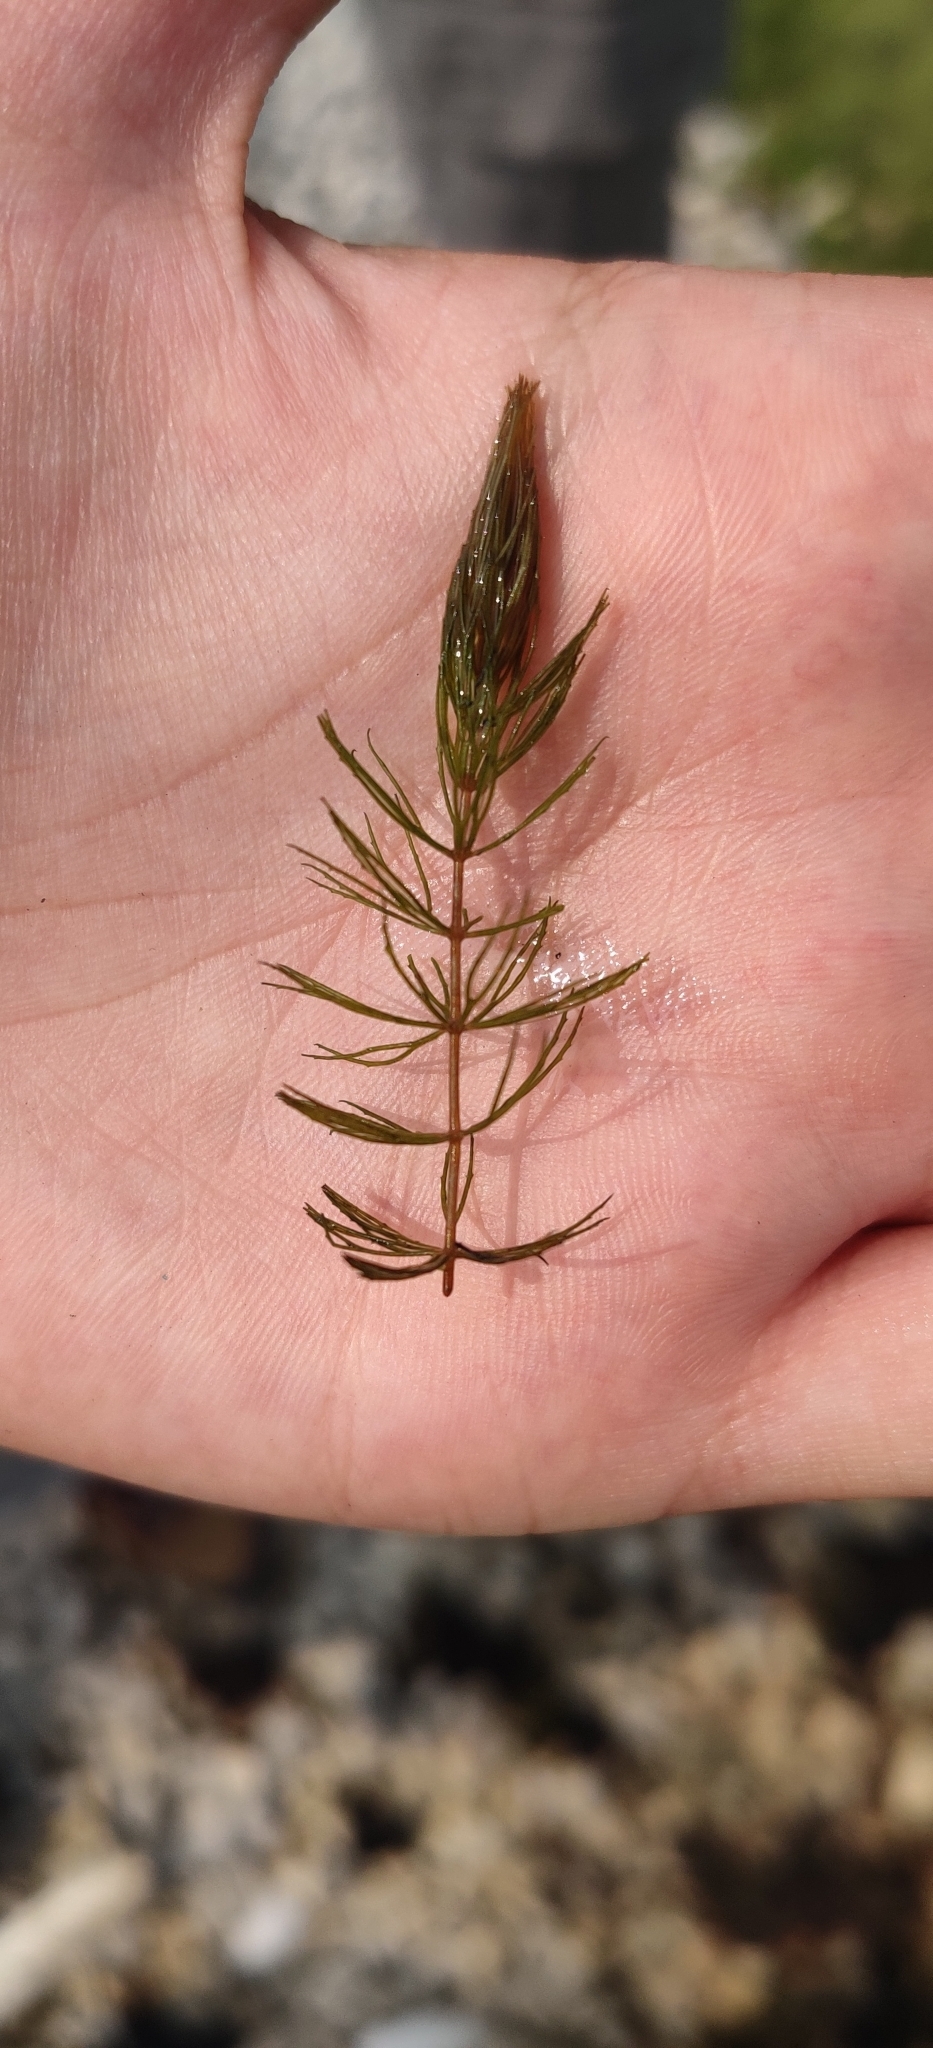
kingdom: Plantae
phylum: Tracheophyta
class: Magnoliopsida
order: Ceratophyllales
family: Ceratophyllaceae
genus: Ceratophyllum
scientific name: Ceratophyllum demersum
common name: Rigid hornwort
